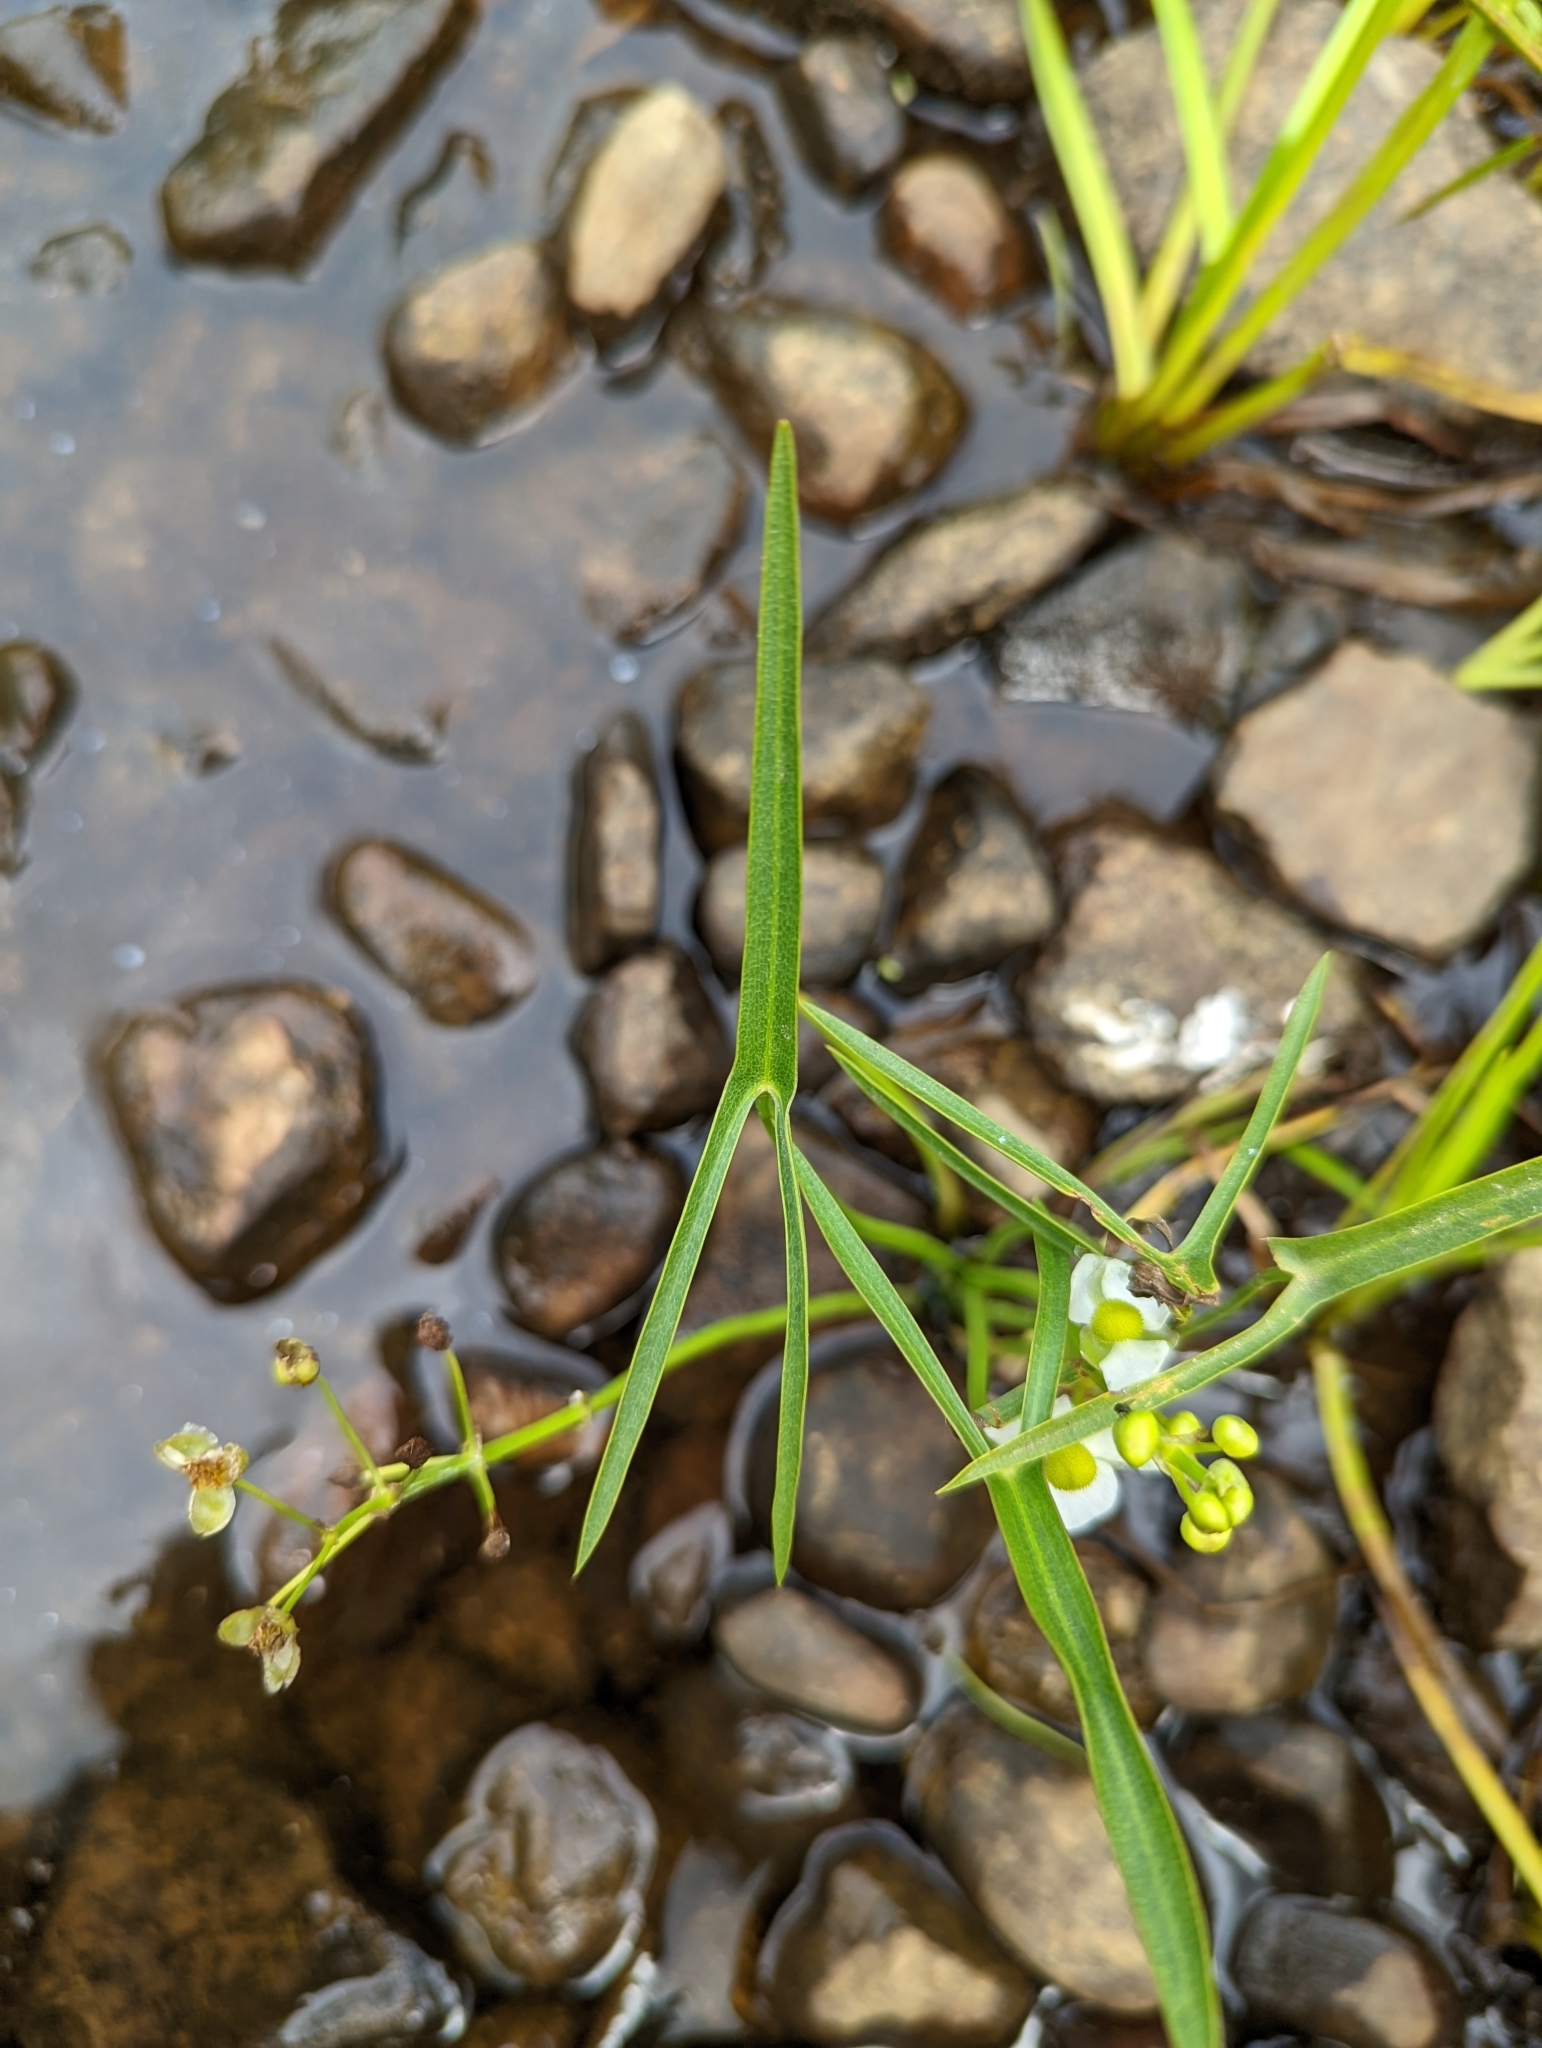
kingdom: Plantae
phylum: Tracheophyta
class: Liliopsida
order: Alismatales
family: Alismataceae
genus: Sagittaria
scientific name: Sagittaria latifolia
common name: Duck-potato
